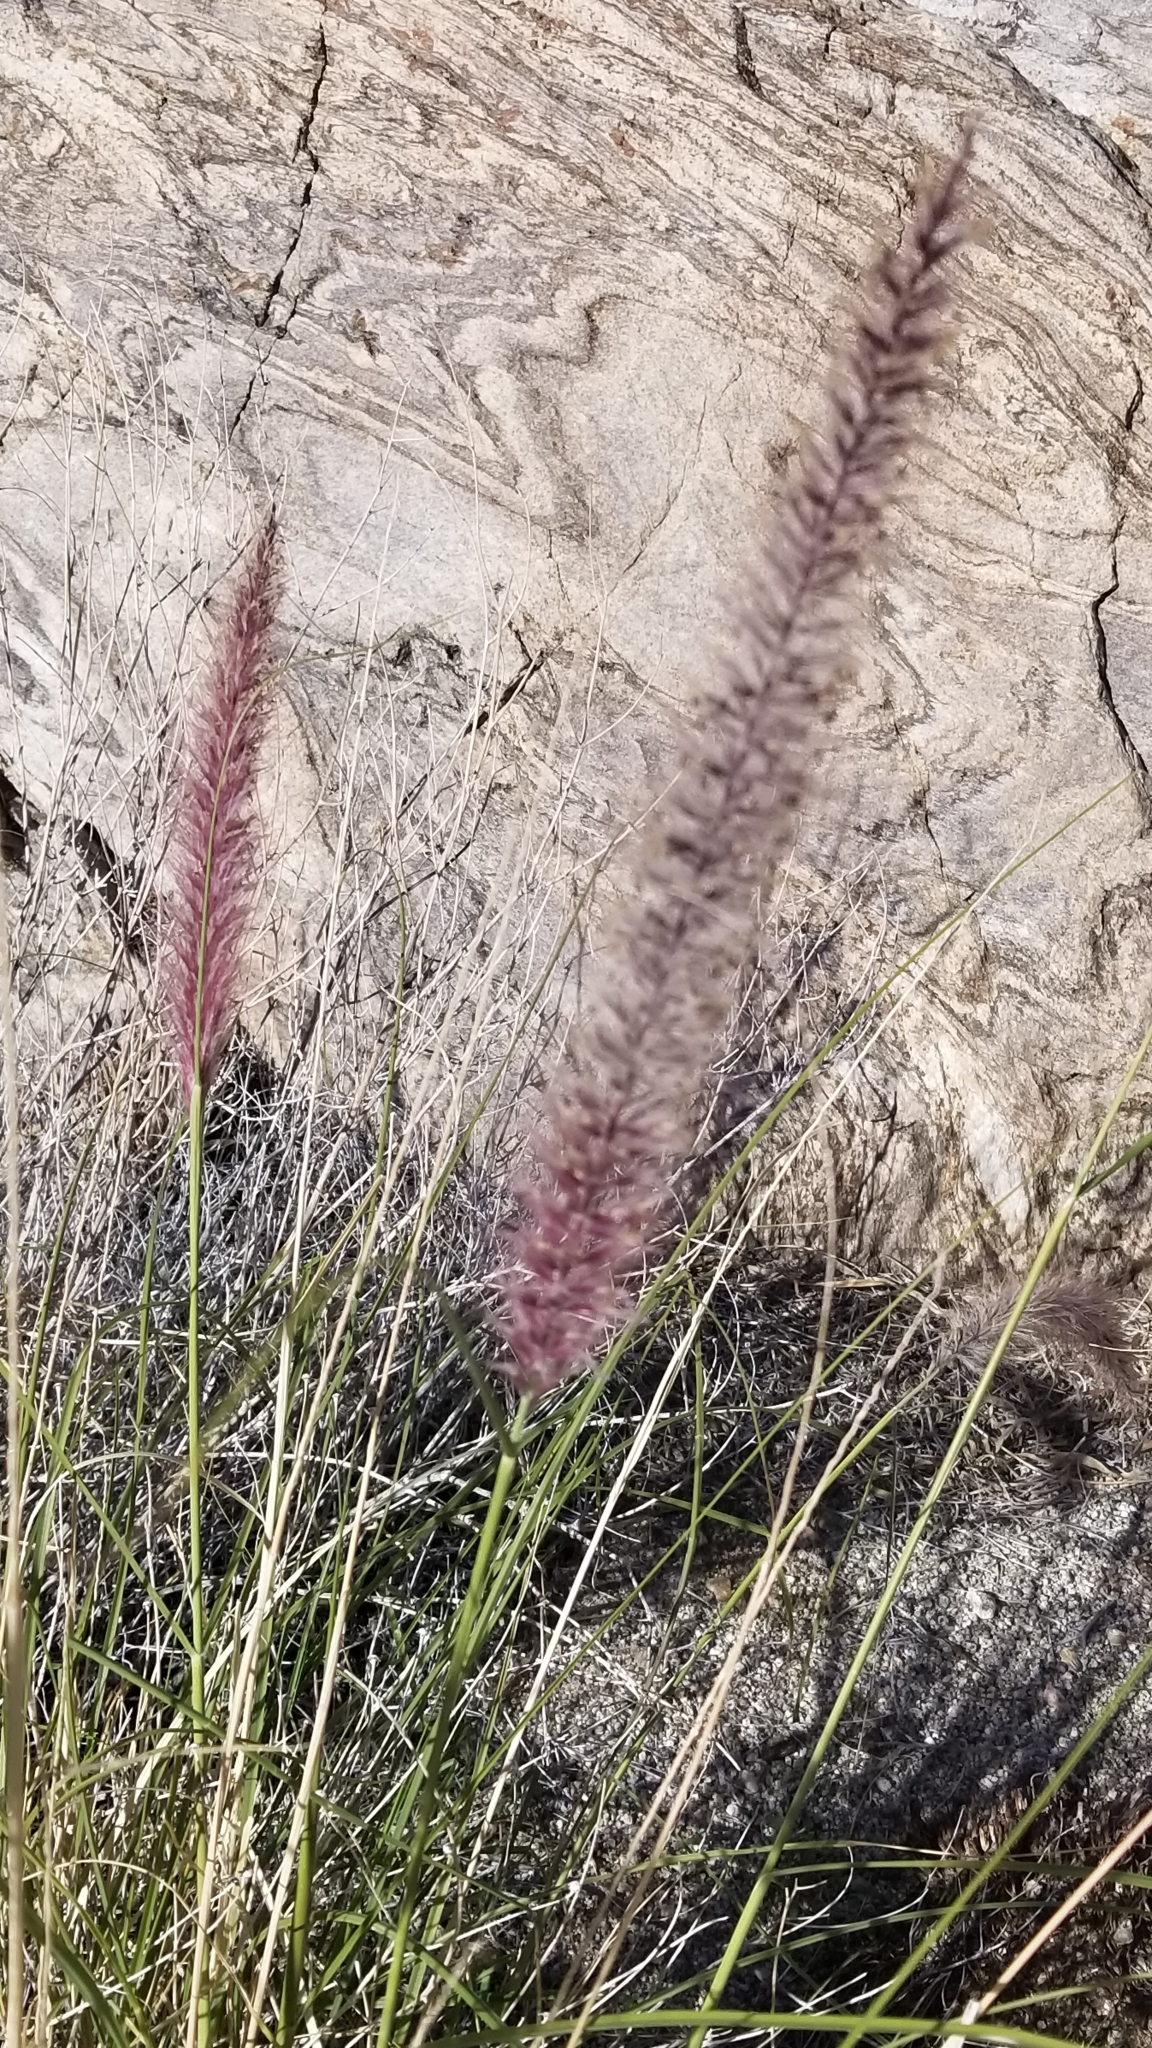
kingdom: Plantae
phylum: Tracheophyta
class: Liliopsida
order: Poales
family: Poaceae
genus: Cenchrus
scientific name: Cenchrus setaceus
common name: Crimson fountaingrass
